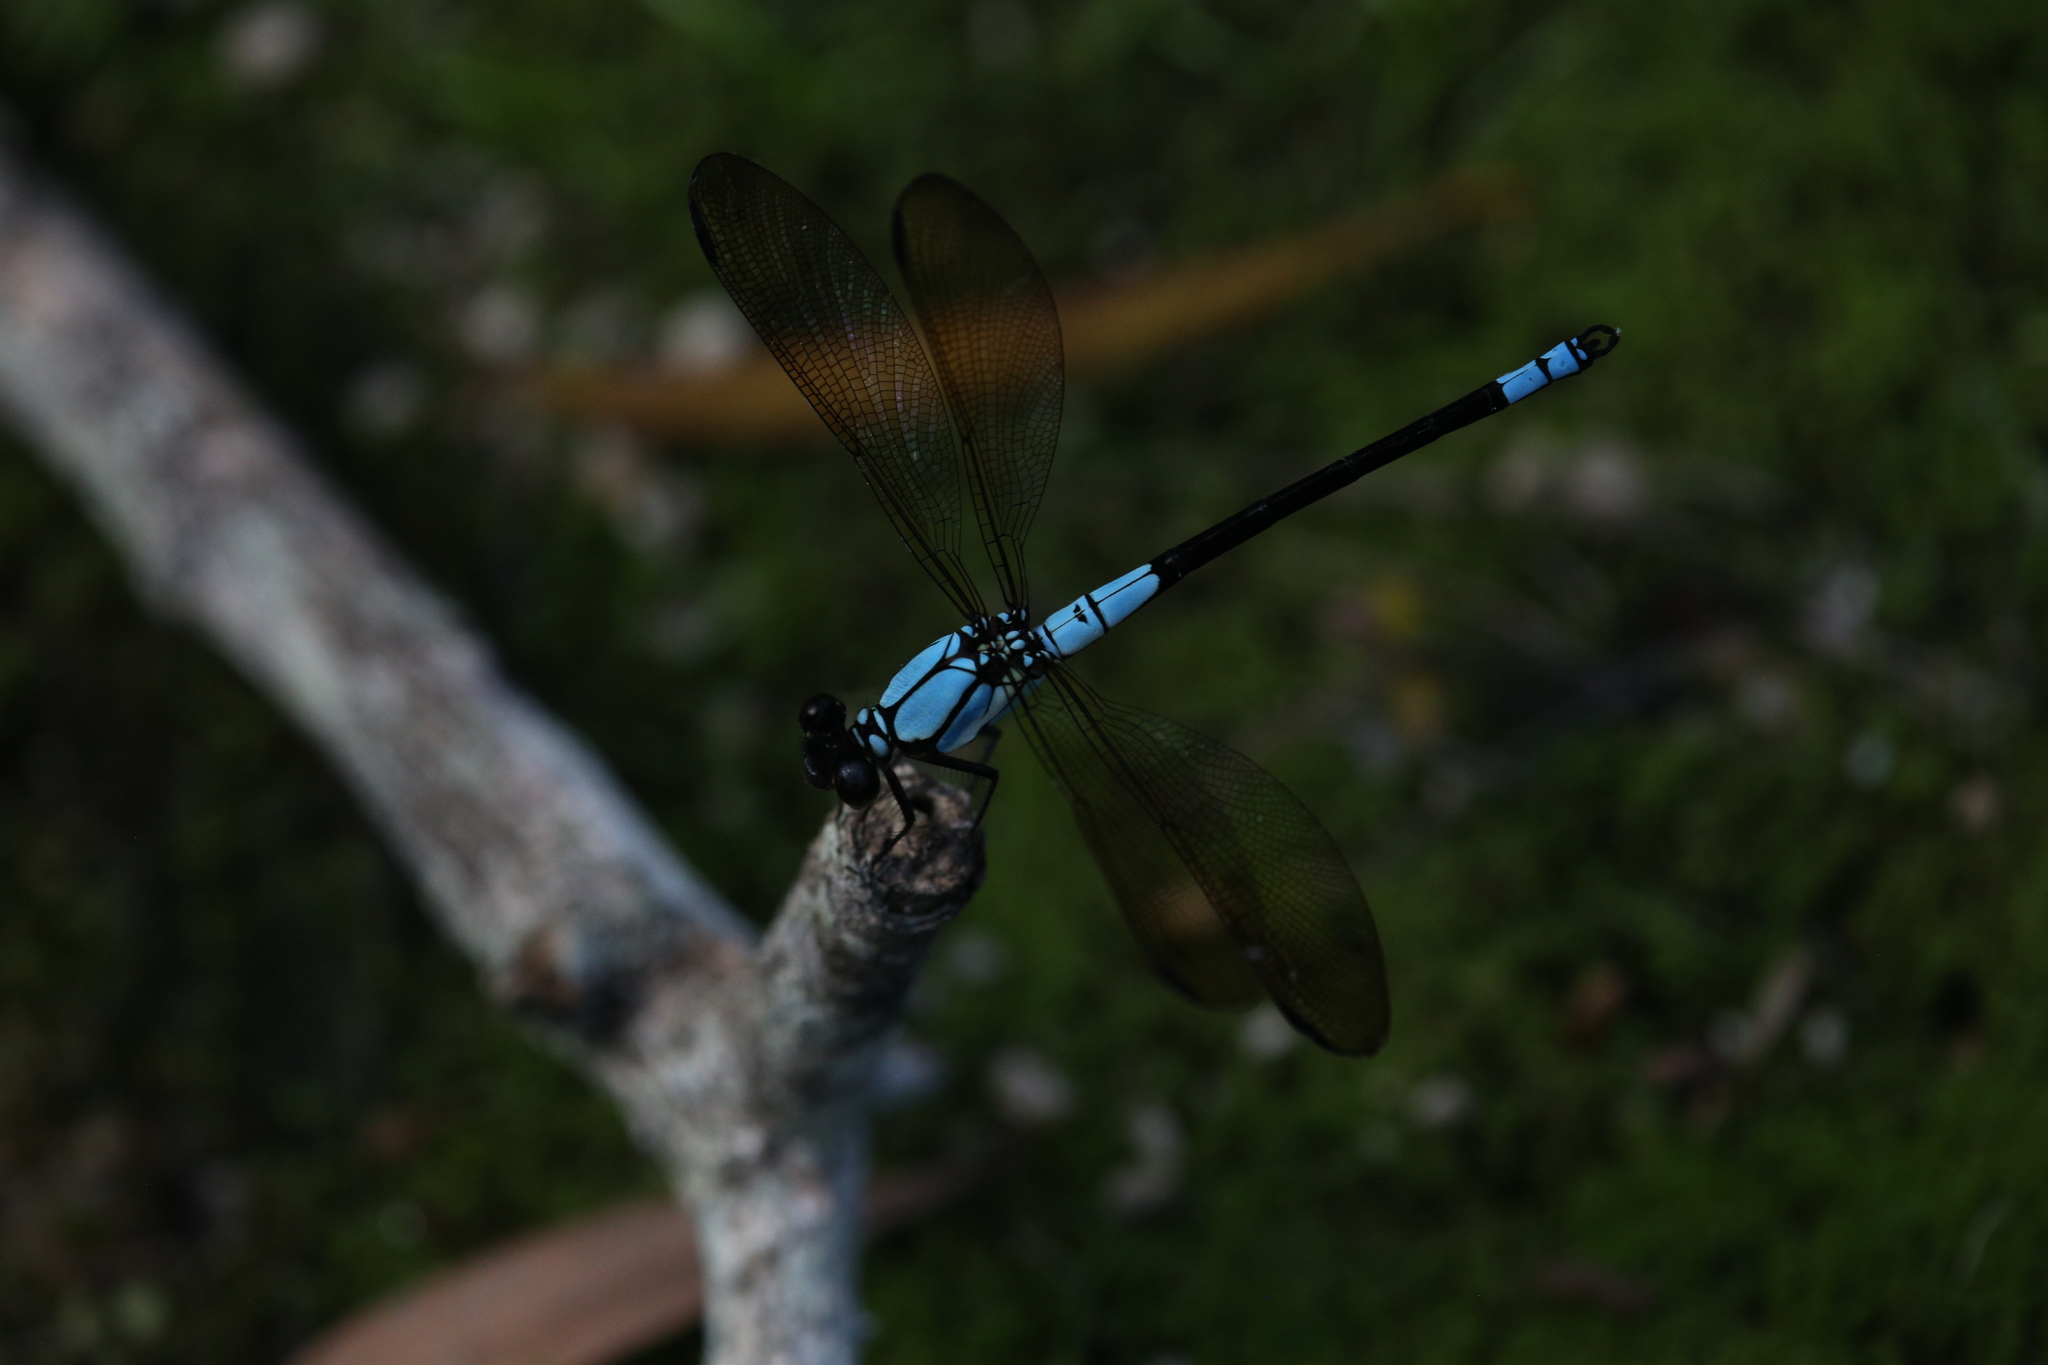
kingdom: Animalia
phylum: Arthropoda
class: Insecta
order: Odonata
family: Lestoideidae
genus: Diphlebia
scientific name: Diphlebia euphoeoides
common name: Tropical rockmaster
